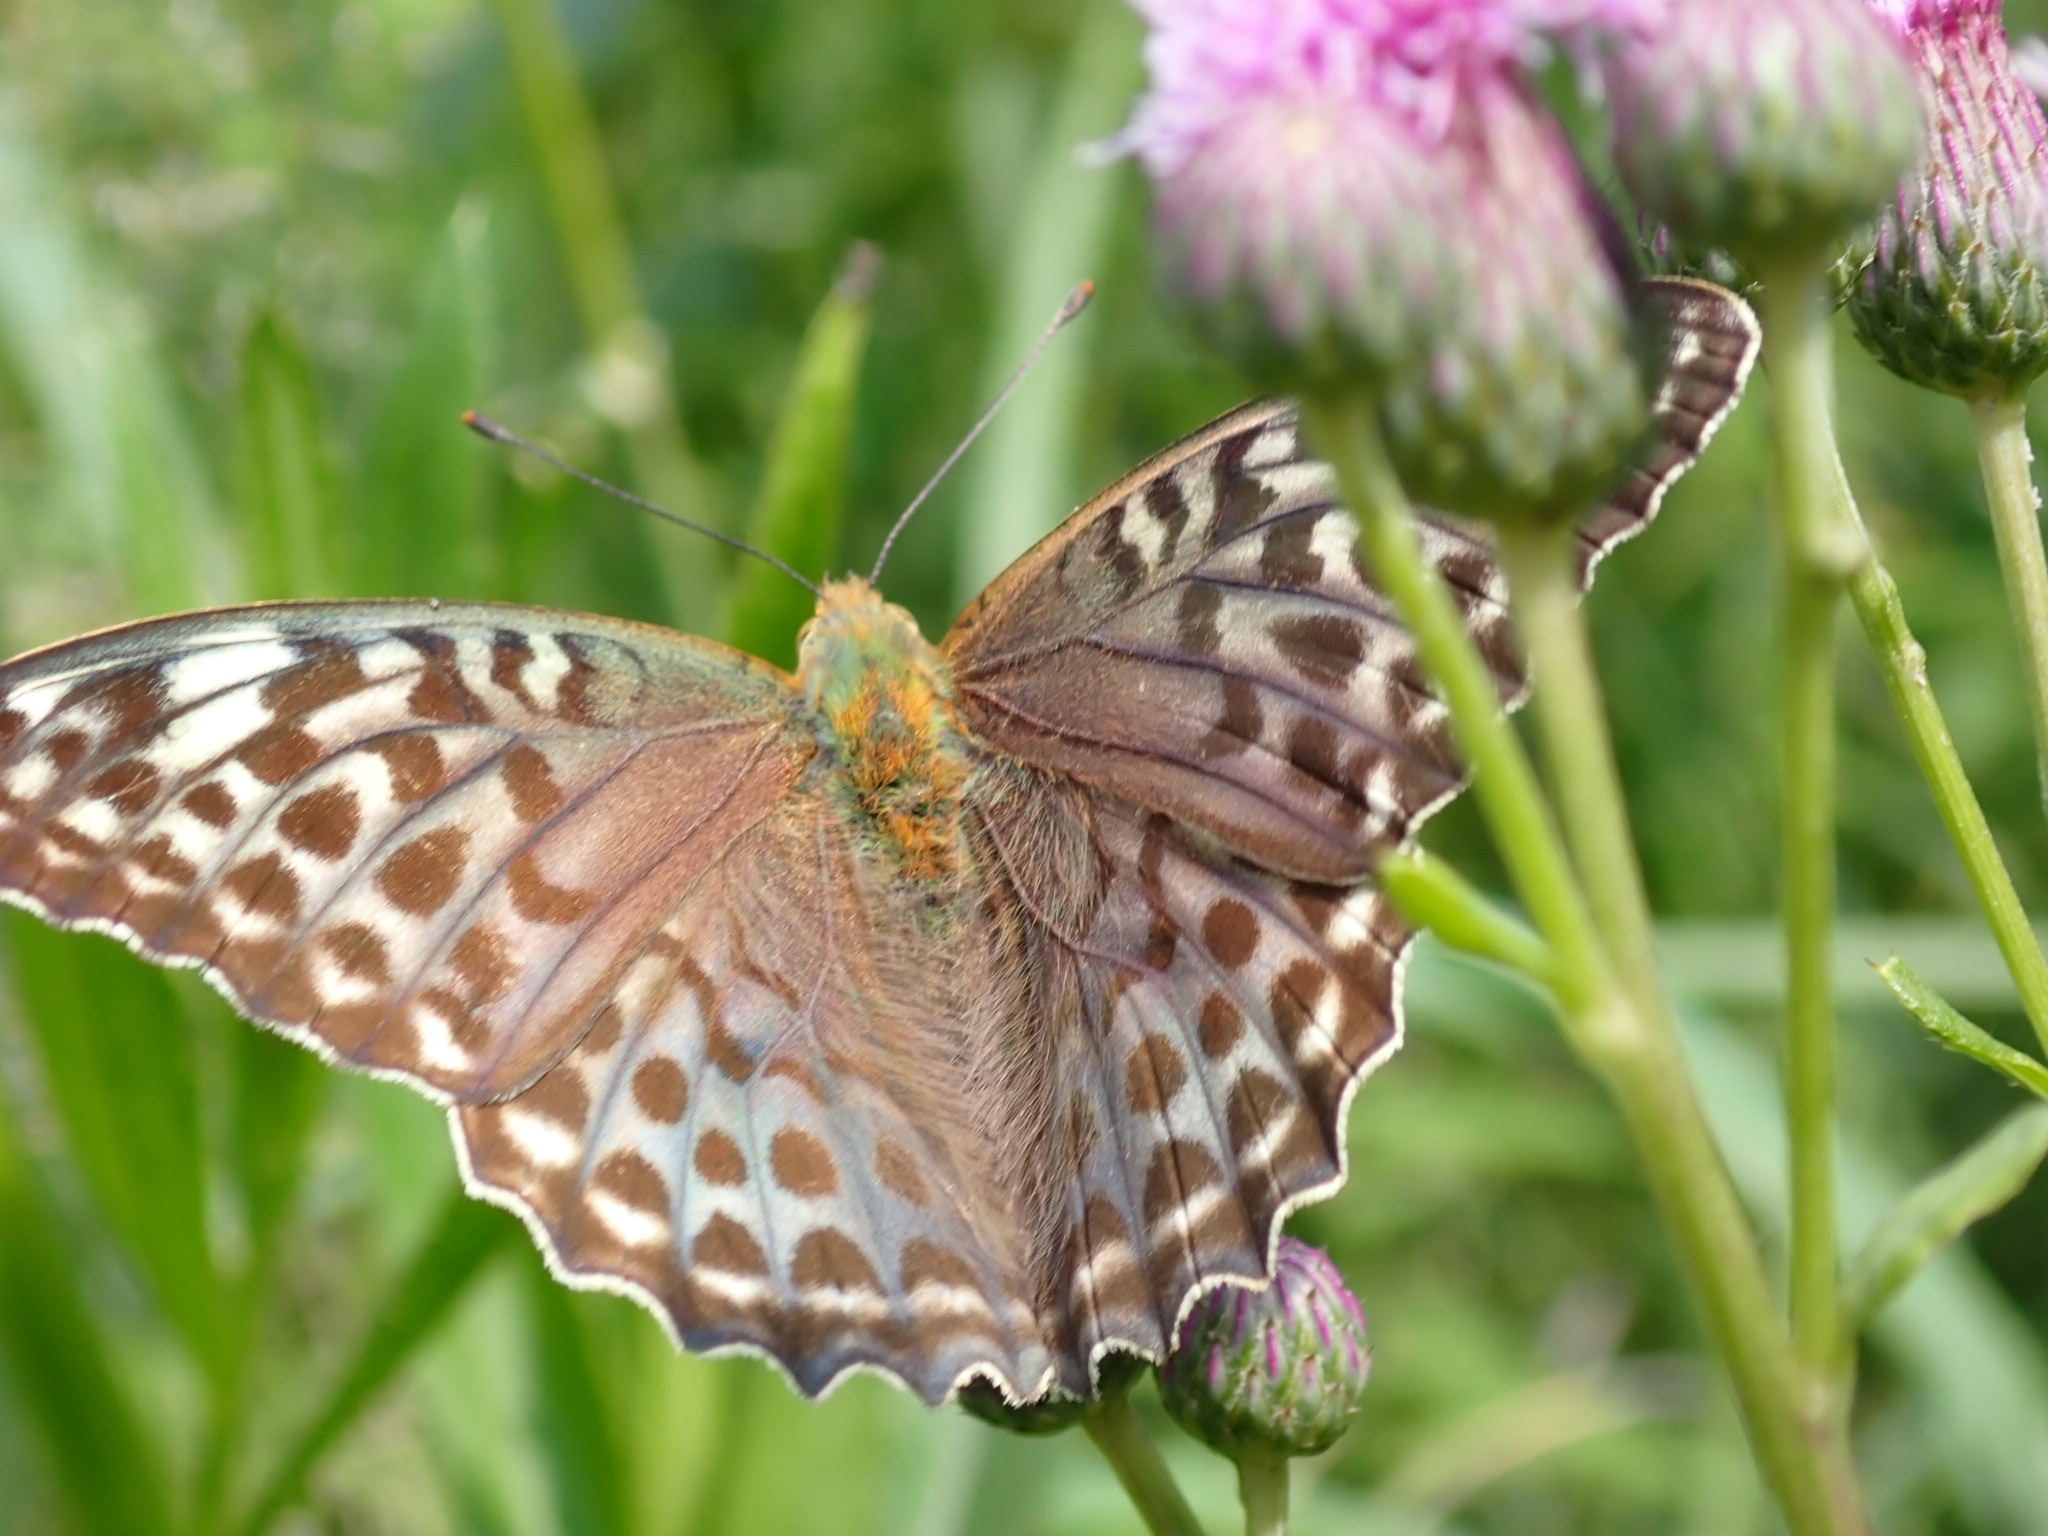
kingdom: Animalia
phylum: Arthropoda
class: Insecta
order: Lepidoptera
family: Nymphalidae
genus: Argynnis
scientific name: Argynnis paphia
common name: Silver-washed fritillary
